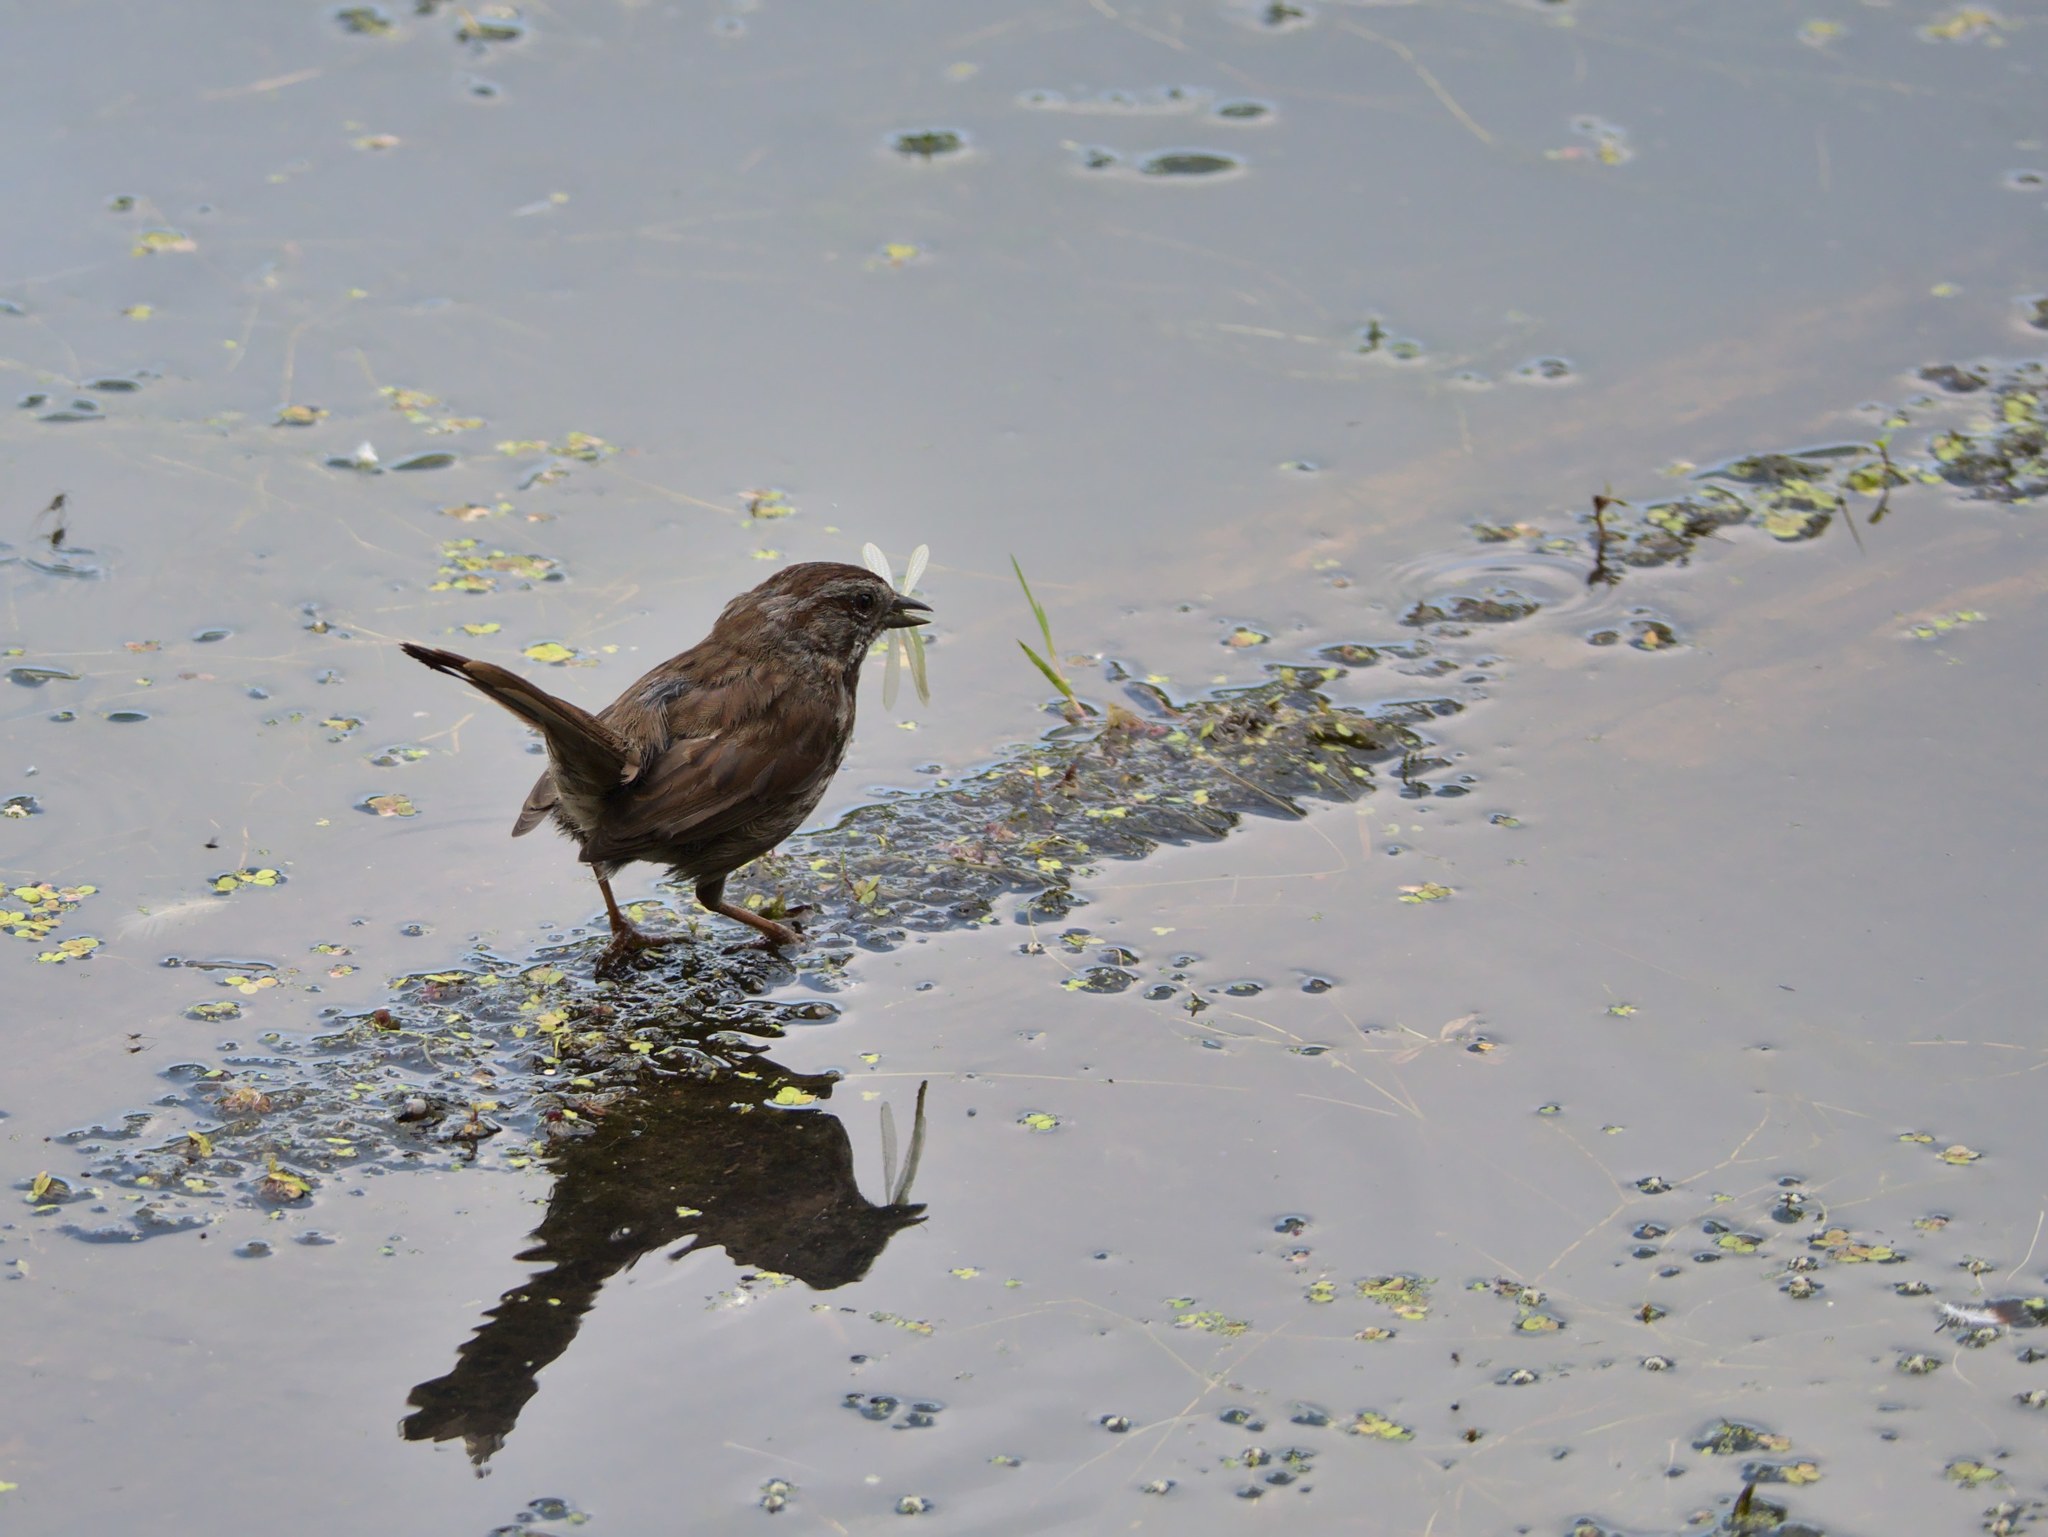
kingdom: Animalia
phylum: Chordata
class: Aves
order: Passeriformes
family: Passerellidae
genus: Melospiza
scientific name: Melospiza melodia
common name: Song sparrow
